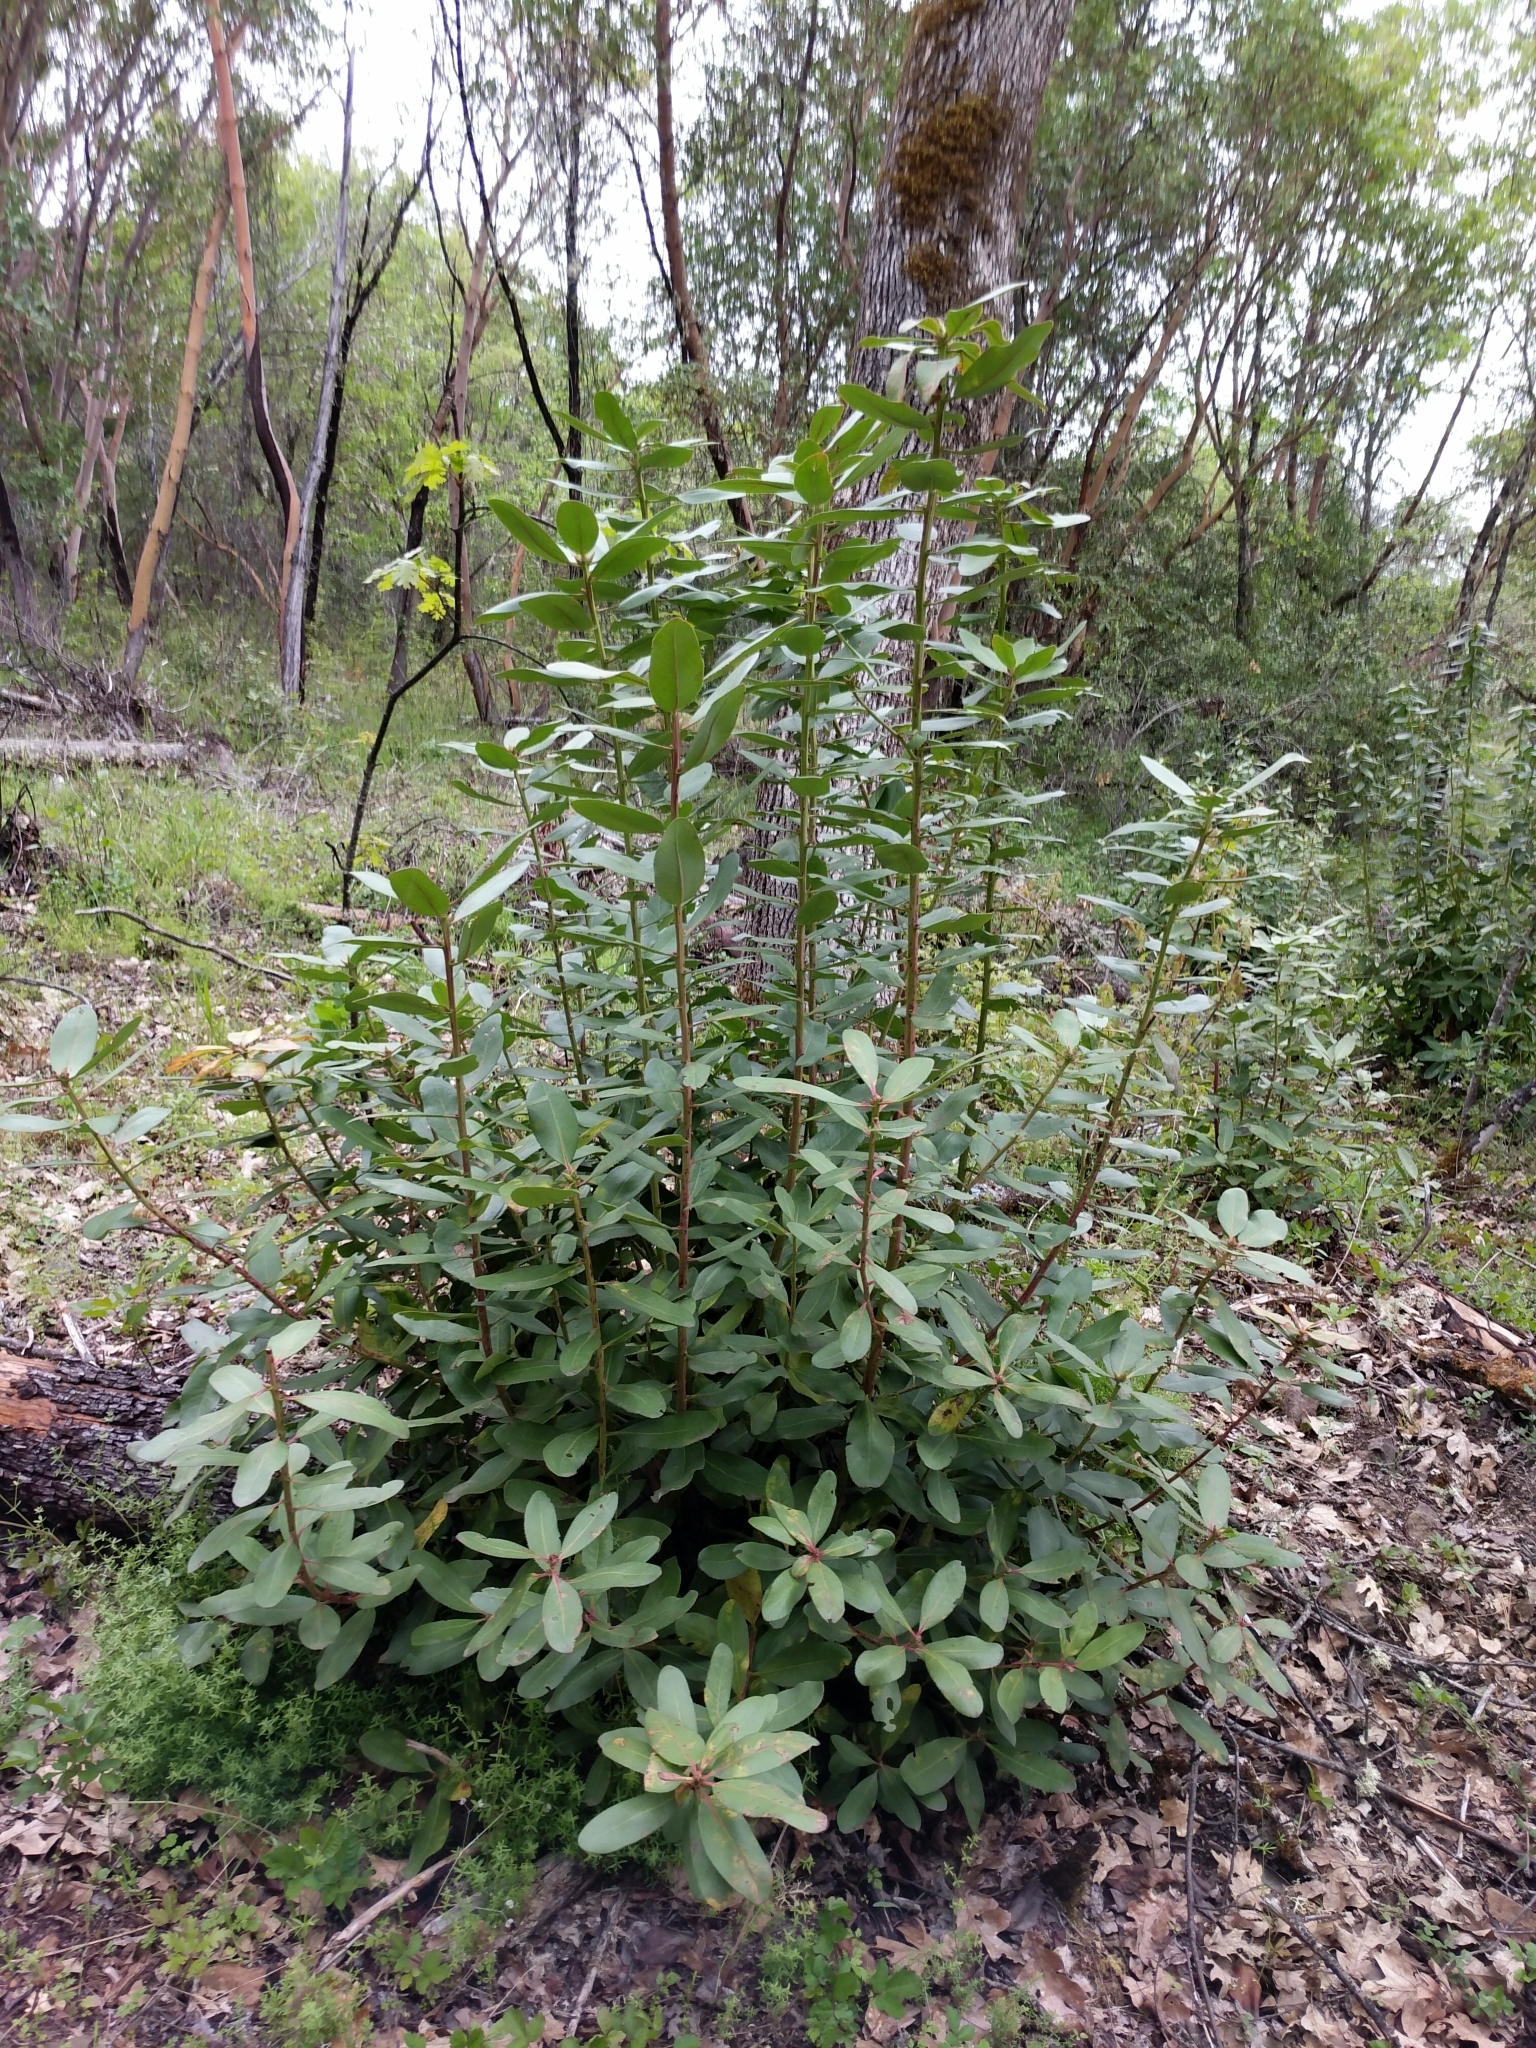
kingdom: Plantae
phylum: Tracheophyta
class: Magnoliopsida
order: Ericales
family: Ericaceae
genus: Arbutus
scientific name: Arbutus menziesii
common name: Pacific madrone
